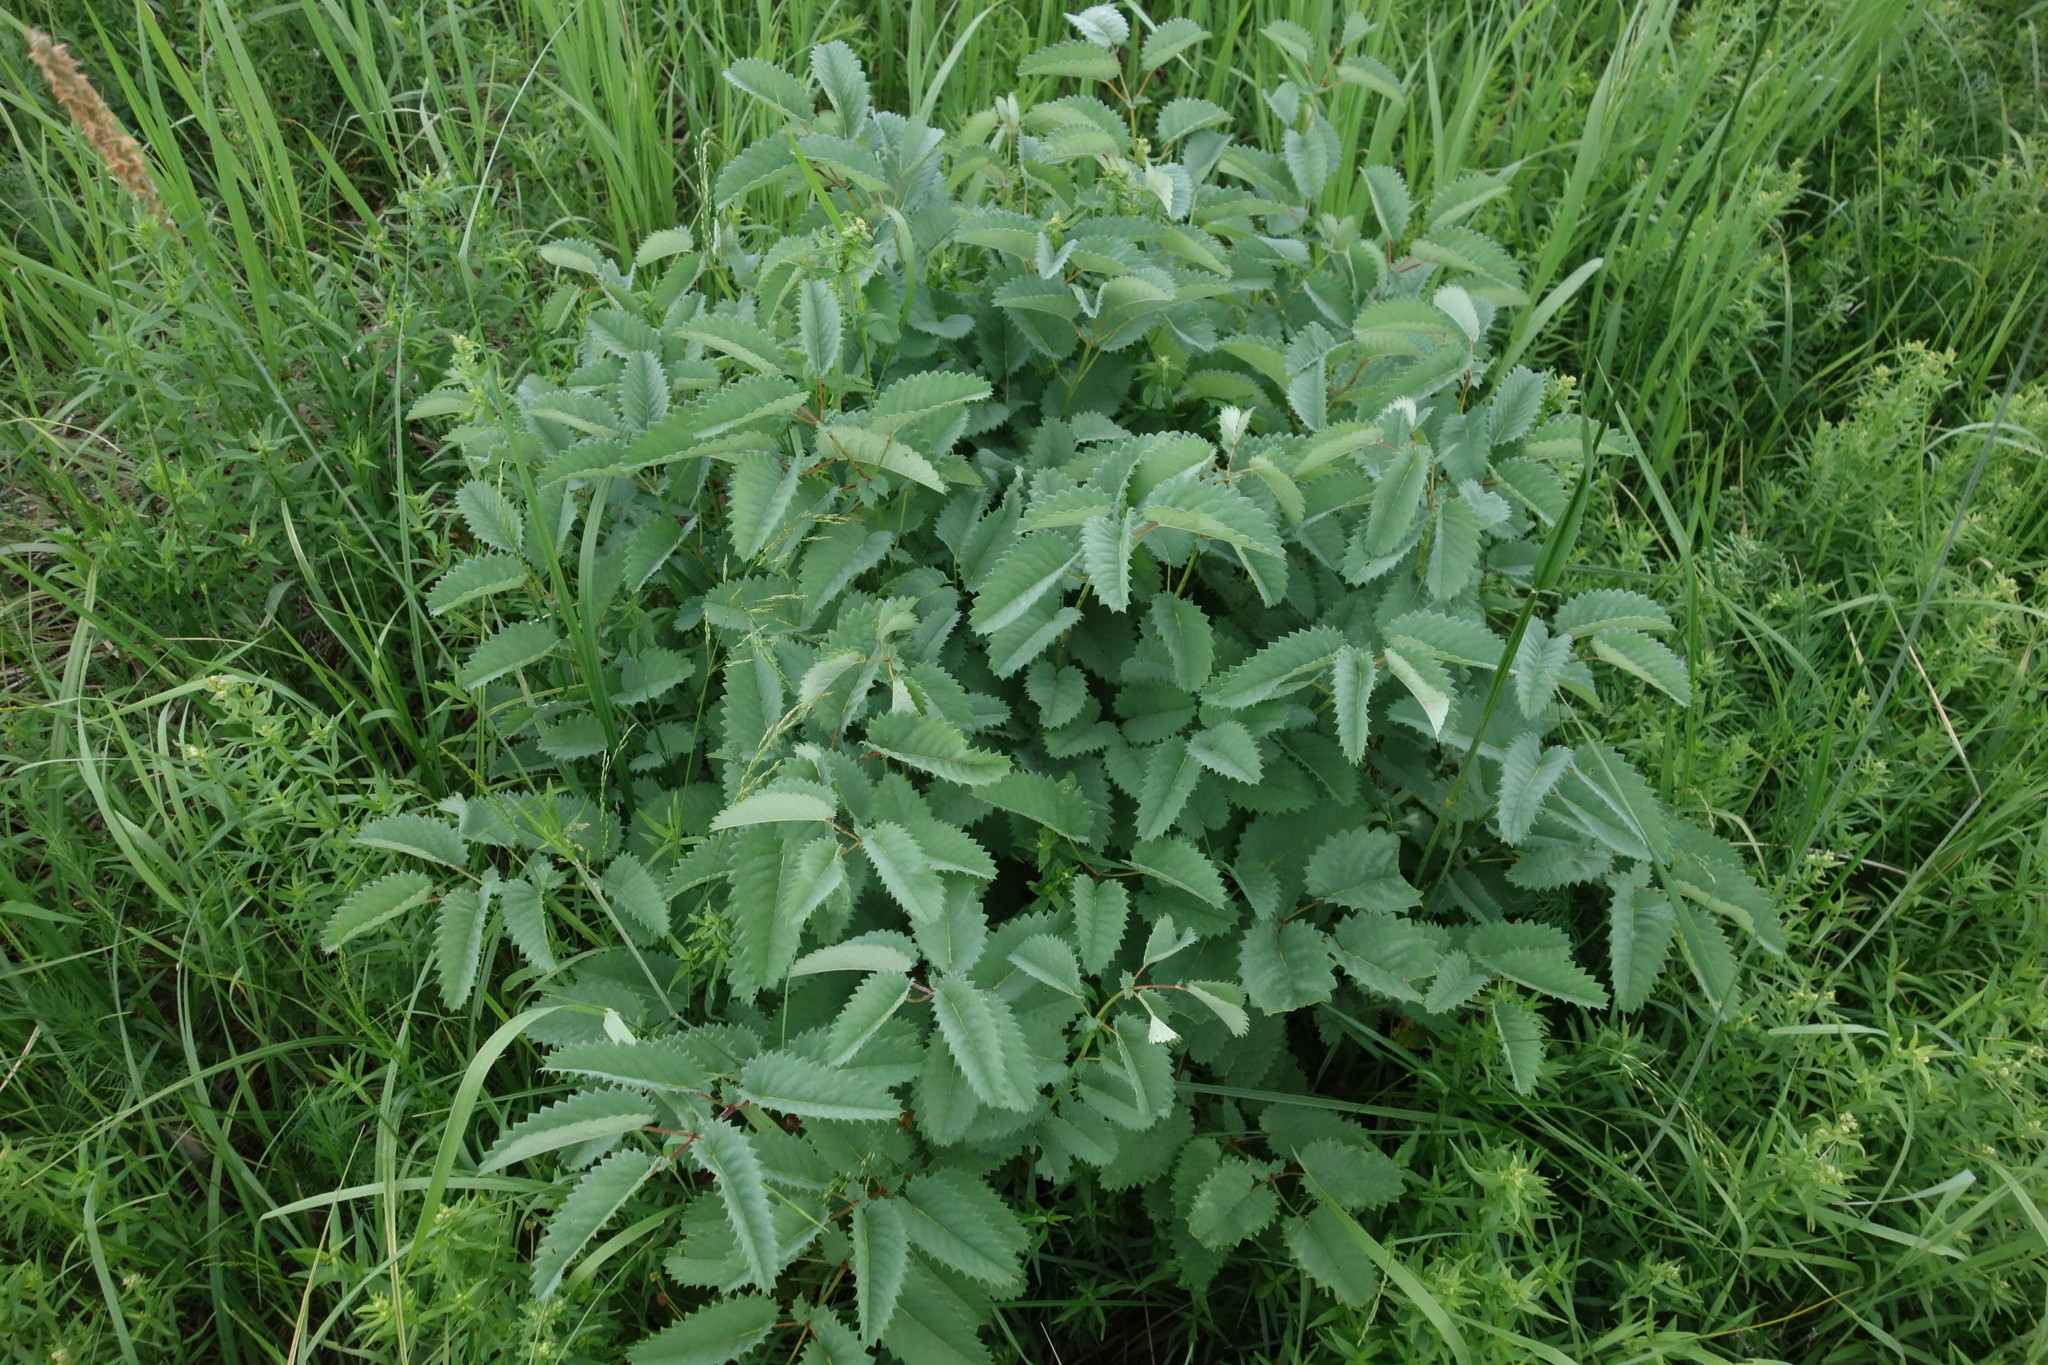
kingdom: Plantae
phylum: Tracheophyta
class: Magnoliopsida
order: Rosales
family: Rosaceae
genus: Sanguisorba
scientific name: Sanguisorba officinalis
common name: Great burnet
